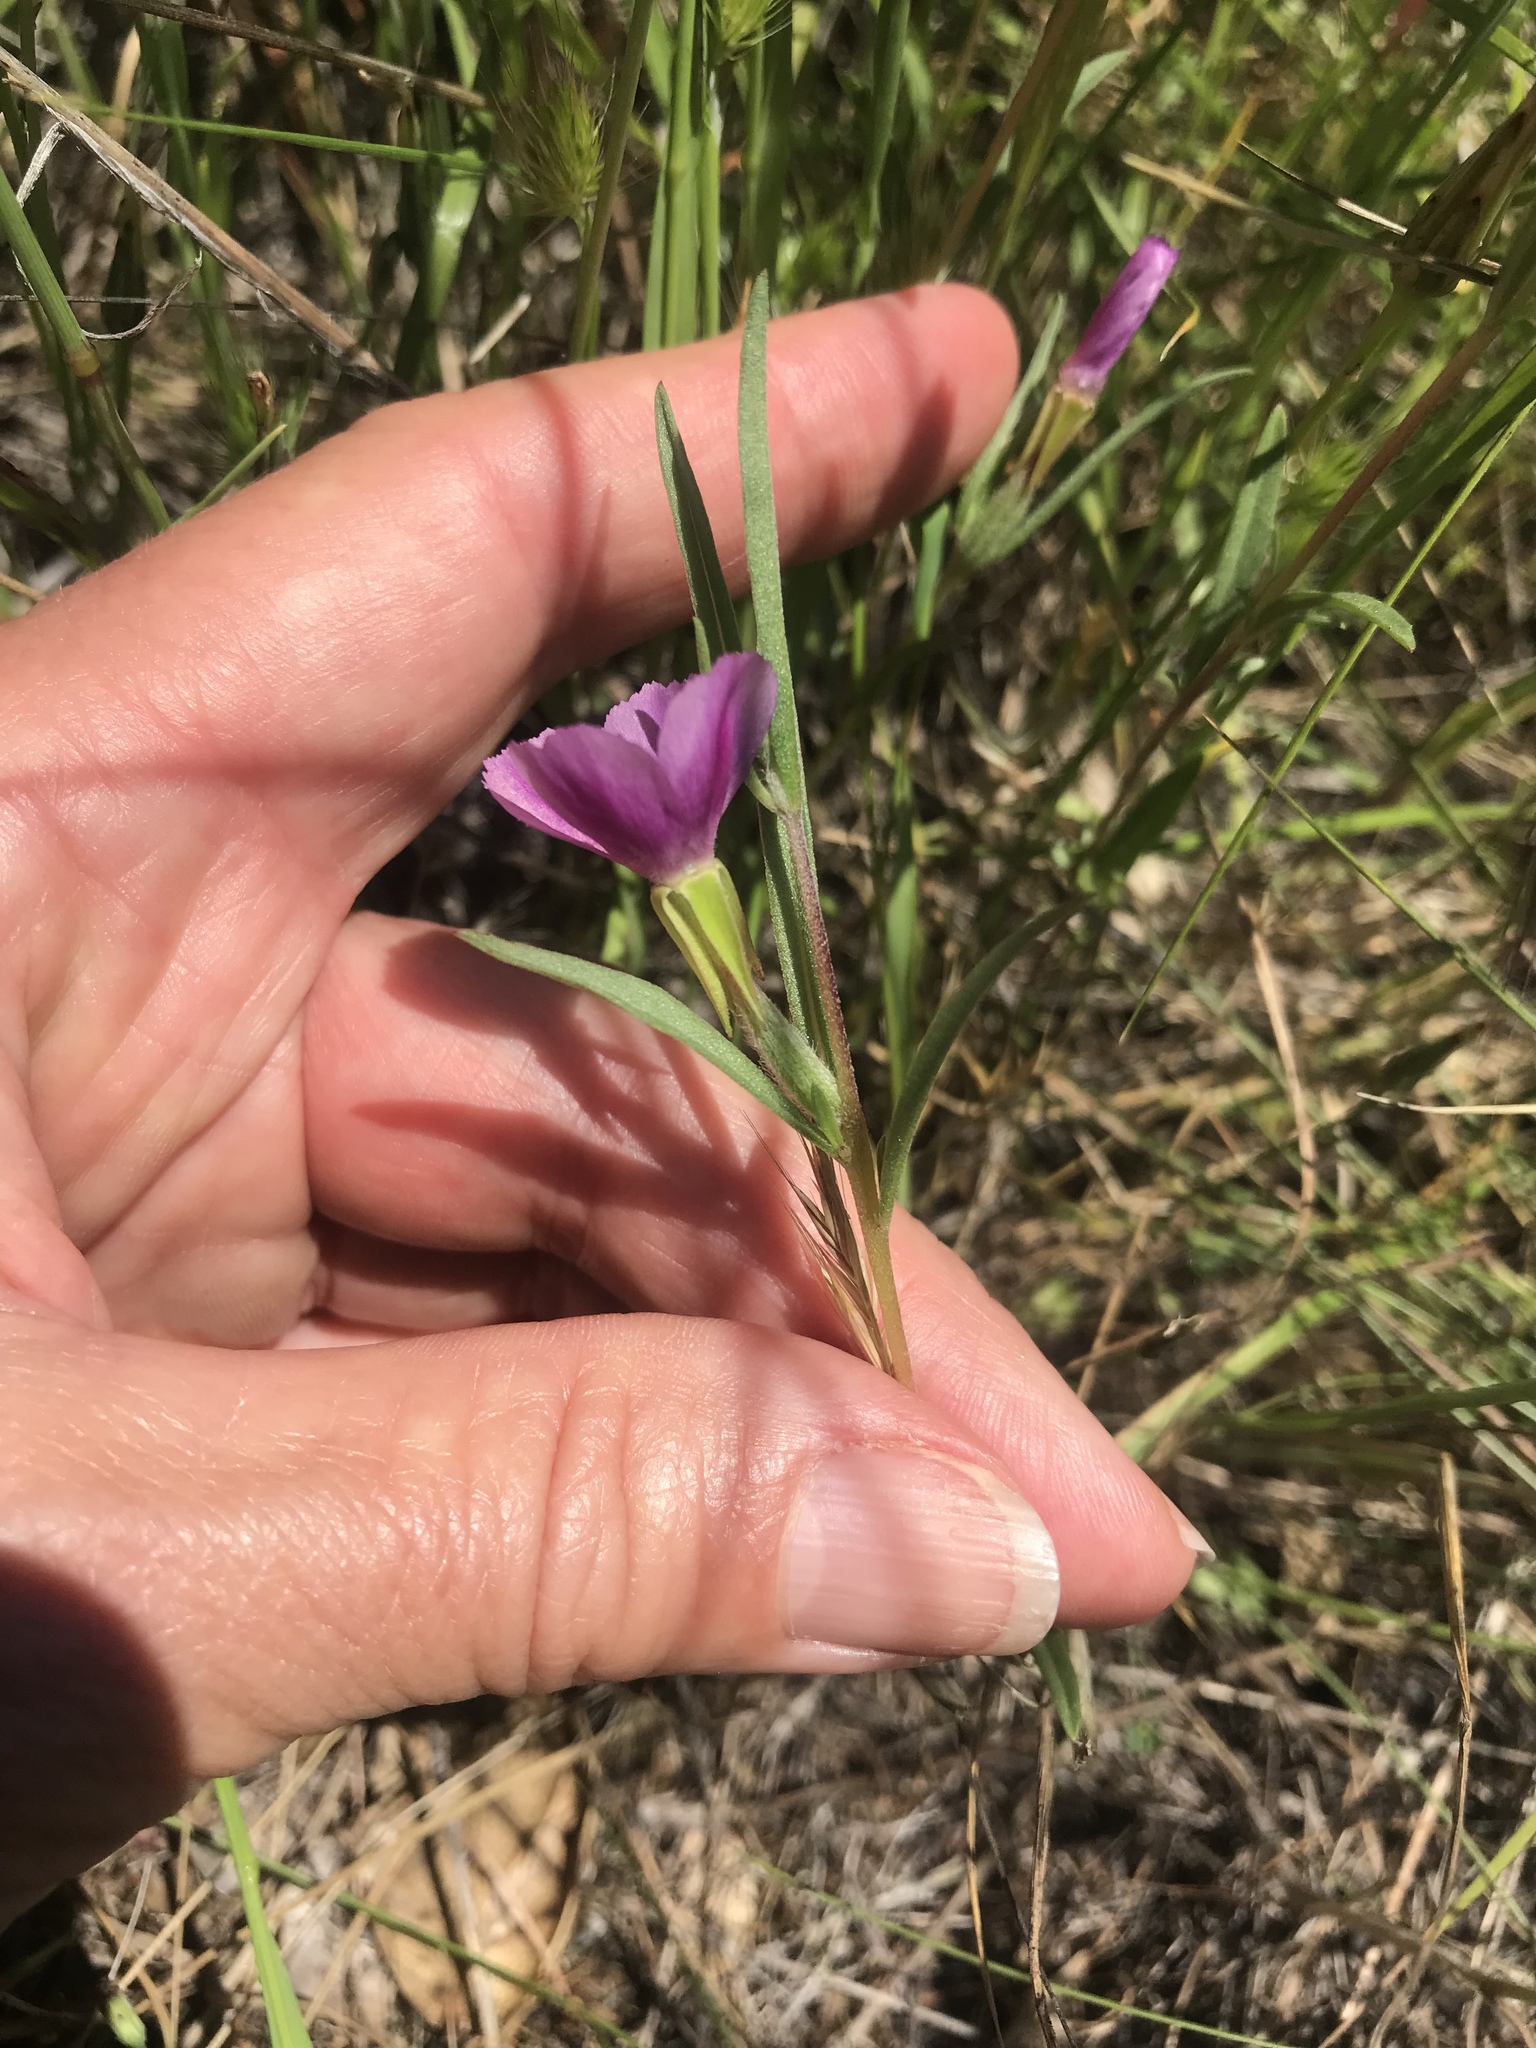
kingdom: Plantae
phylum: Tracheophyta
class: Magnoliopsida
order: Myrtales
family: Onagraceae
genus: Clarkia
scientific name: Clarkia purpurea
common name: Purple clarkia
